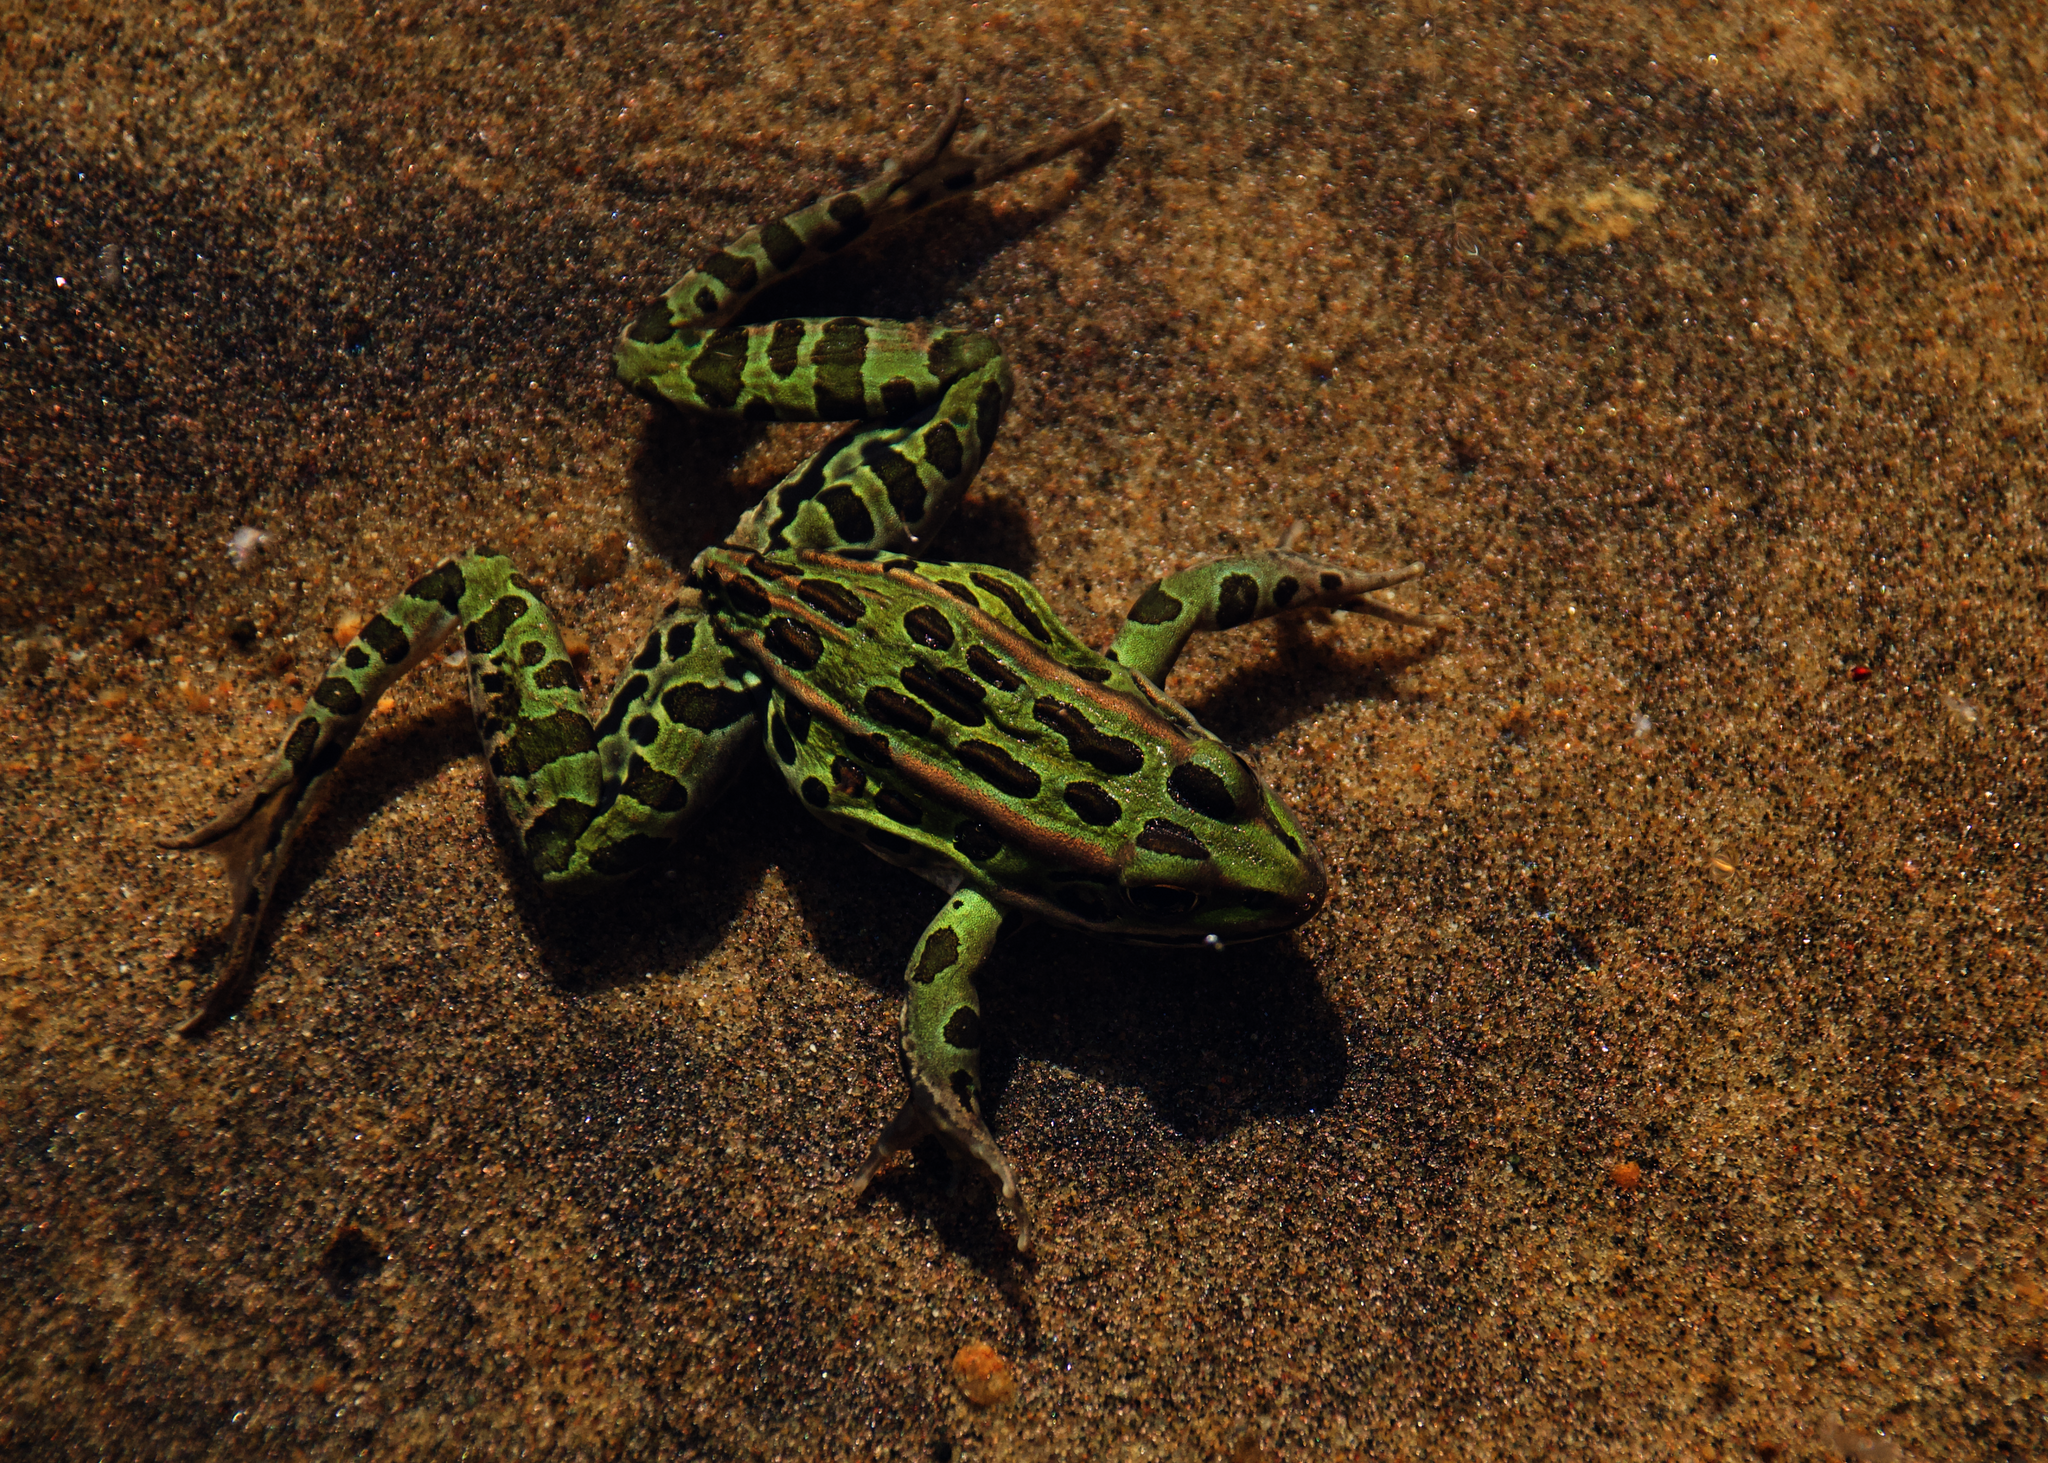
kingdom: Animalia
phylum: Chordata
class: Amphibia
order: Anura
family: Ranidae
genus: Lithobates
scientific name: Lithobates pipiens
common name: Northern leopard frog
